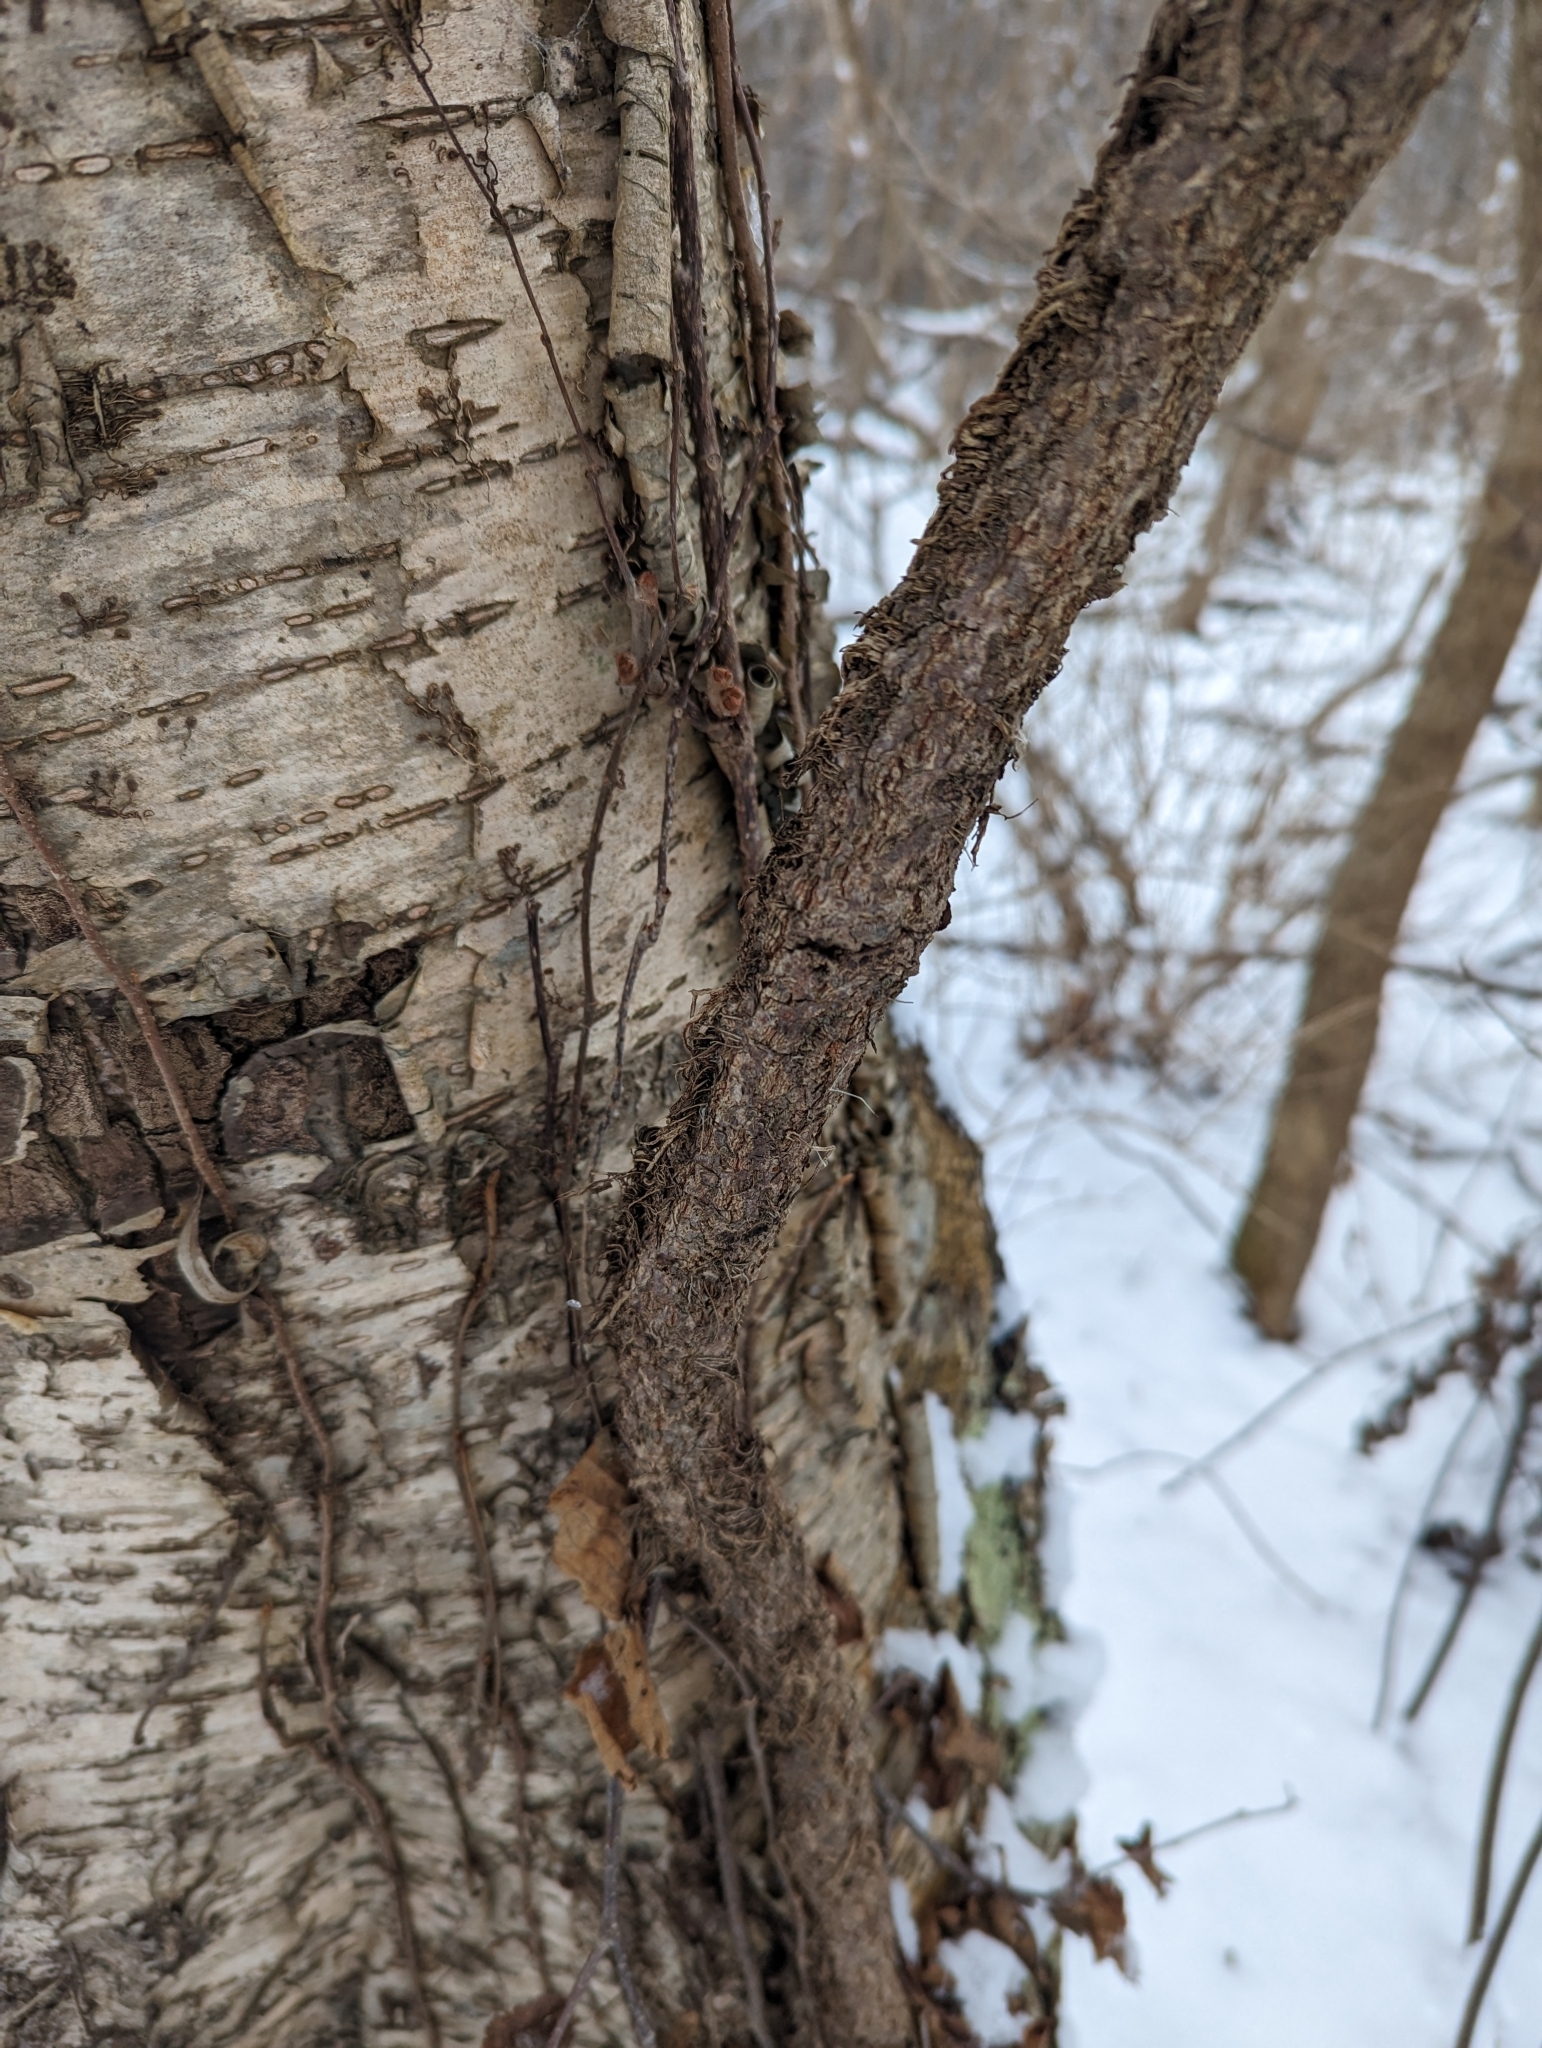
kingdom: Plantae
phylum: Tracheophyta
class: Magnoliopsida
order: Sapindales
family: Anacardiaceae
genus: Toxicodendron
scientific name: Toxicodendron radicans
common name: Poison ivy
